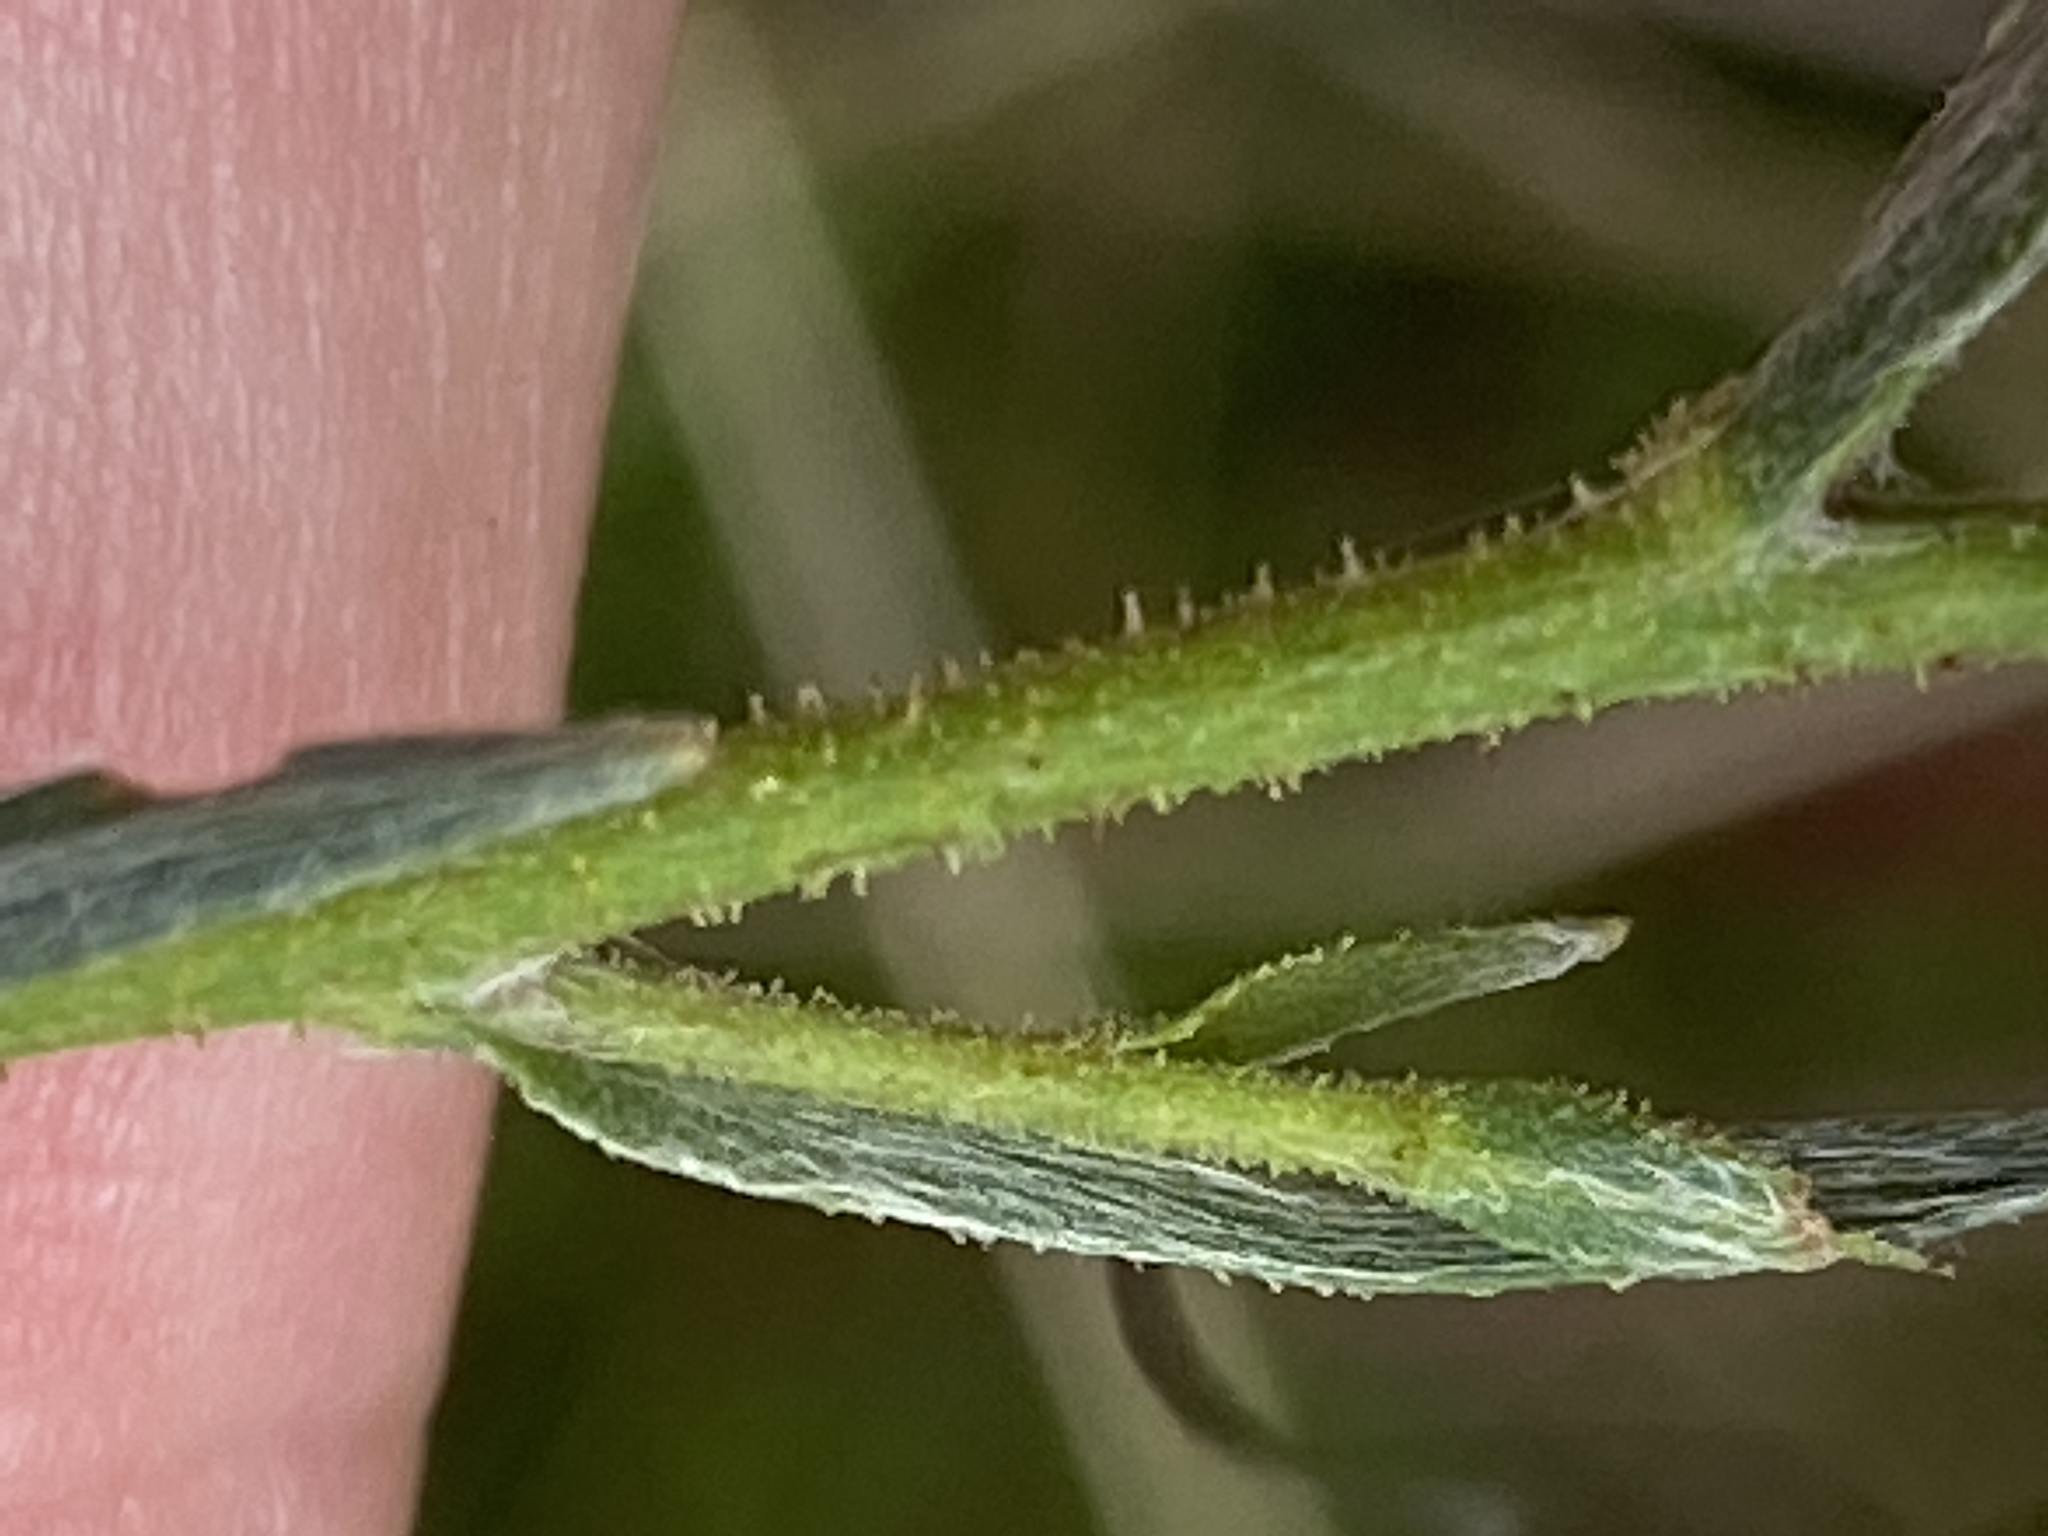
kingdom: Plantae
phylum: Tracheophyta
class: Magnoliopsida
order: Asterales
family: Asteraceae
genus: Pityopsis
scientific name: Pityopsis aspera
